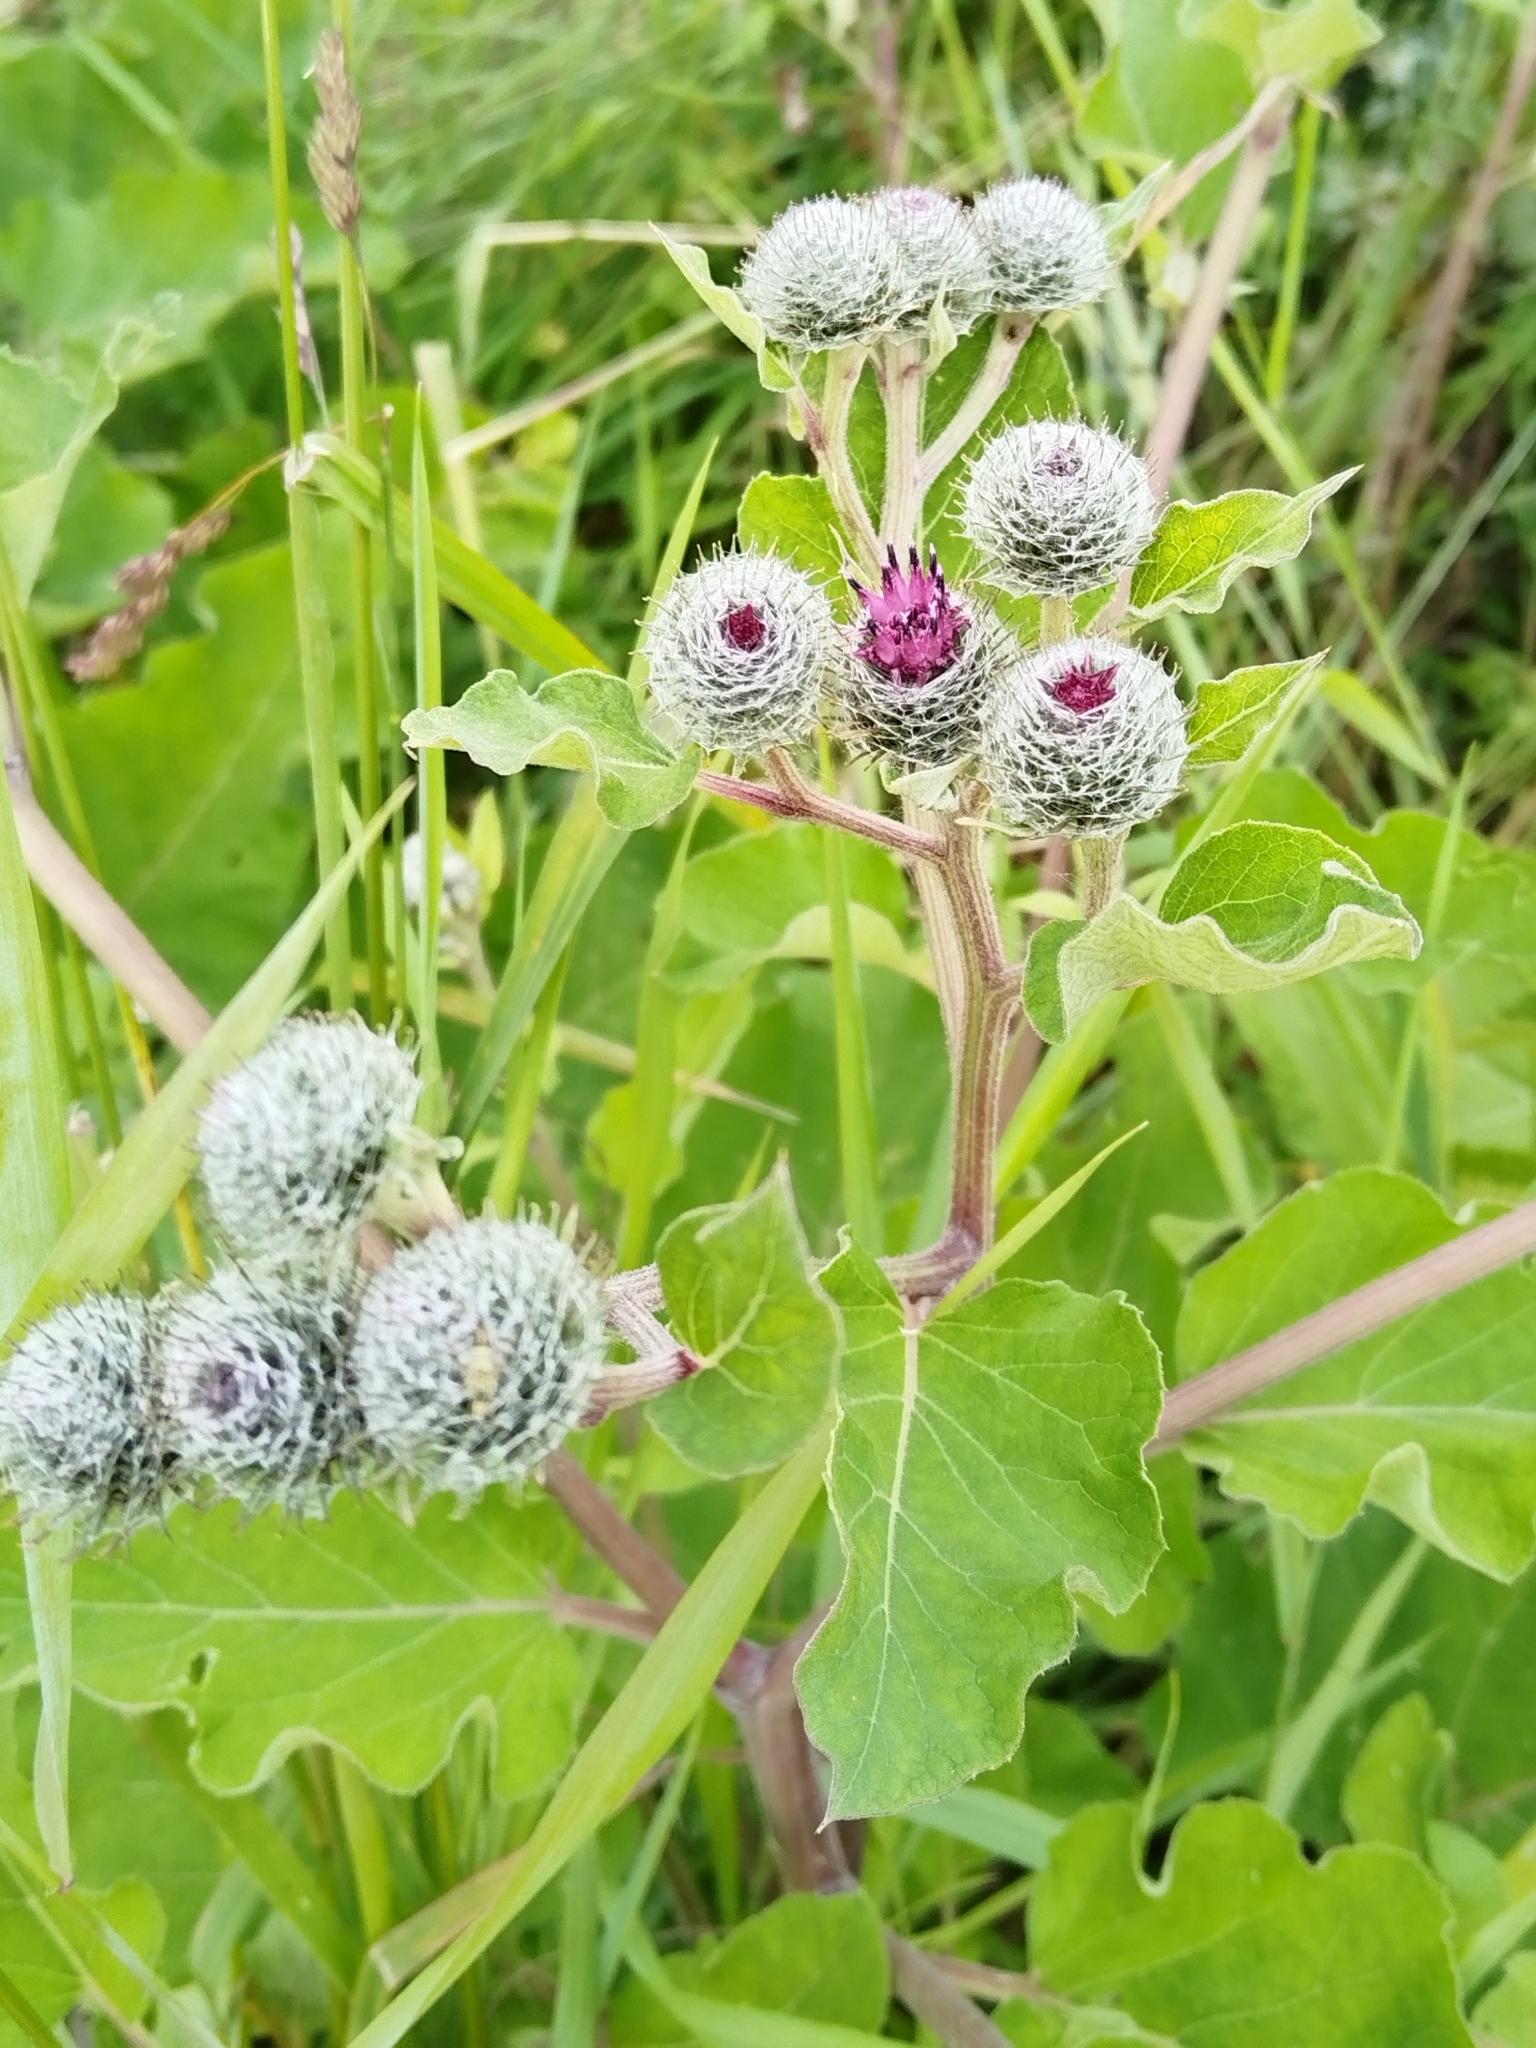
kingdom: Plantae
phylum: Tracheophyta
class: Magnoliopsida
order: Asterales
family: Asteraceae
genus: Arctium
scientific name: Arctium tomentosum
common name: Woolly burdock
